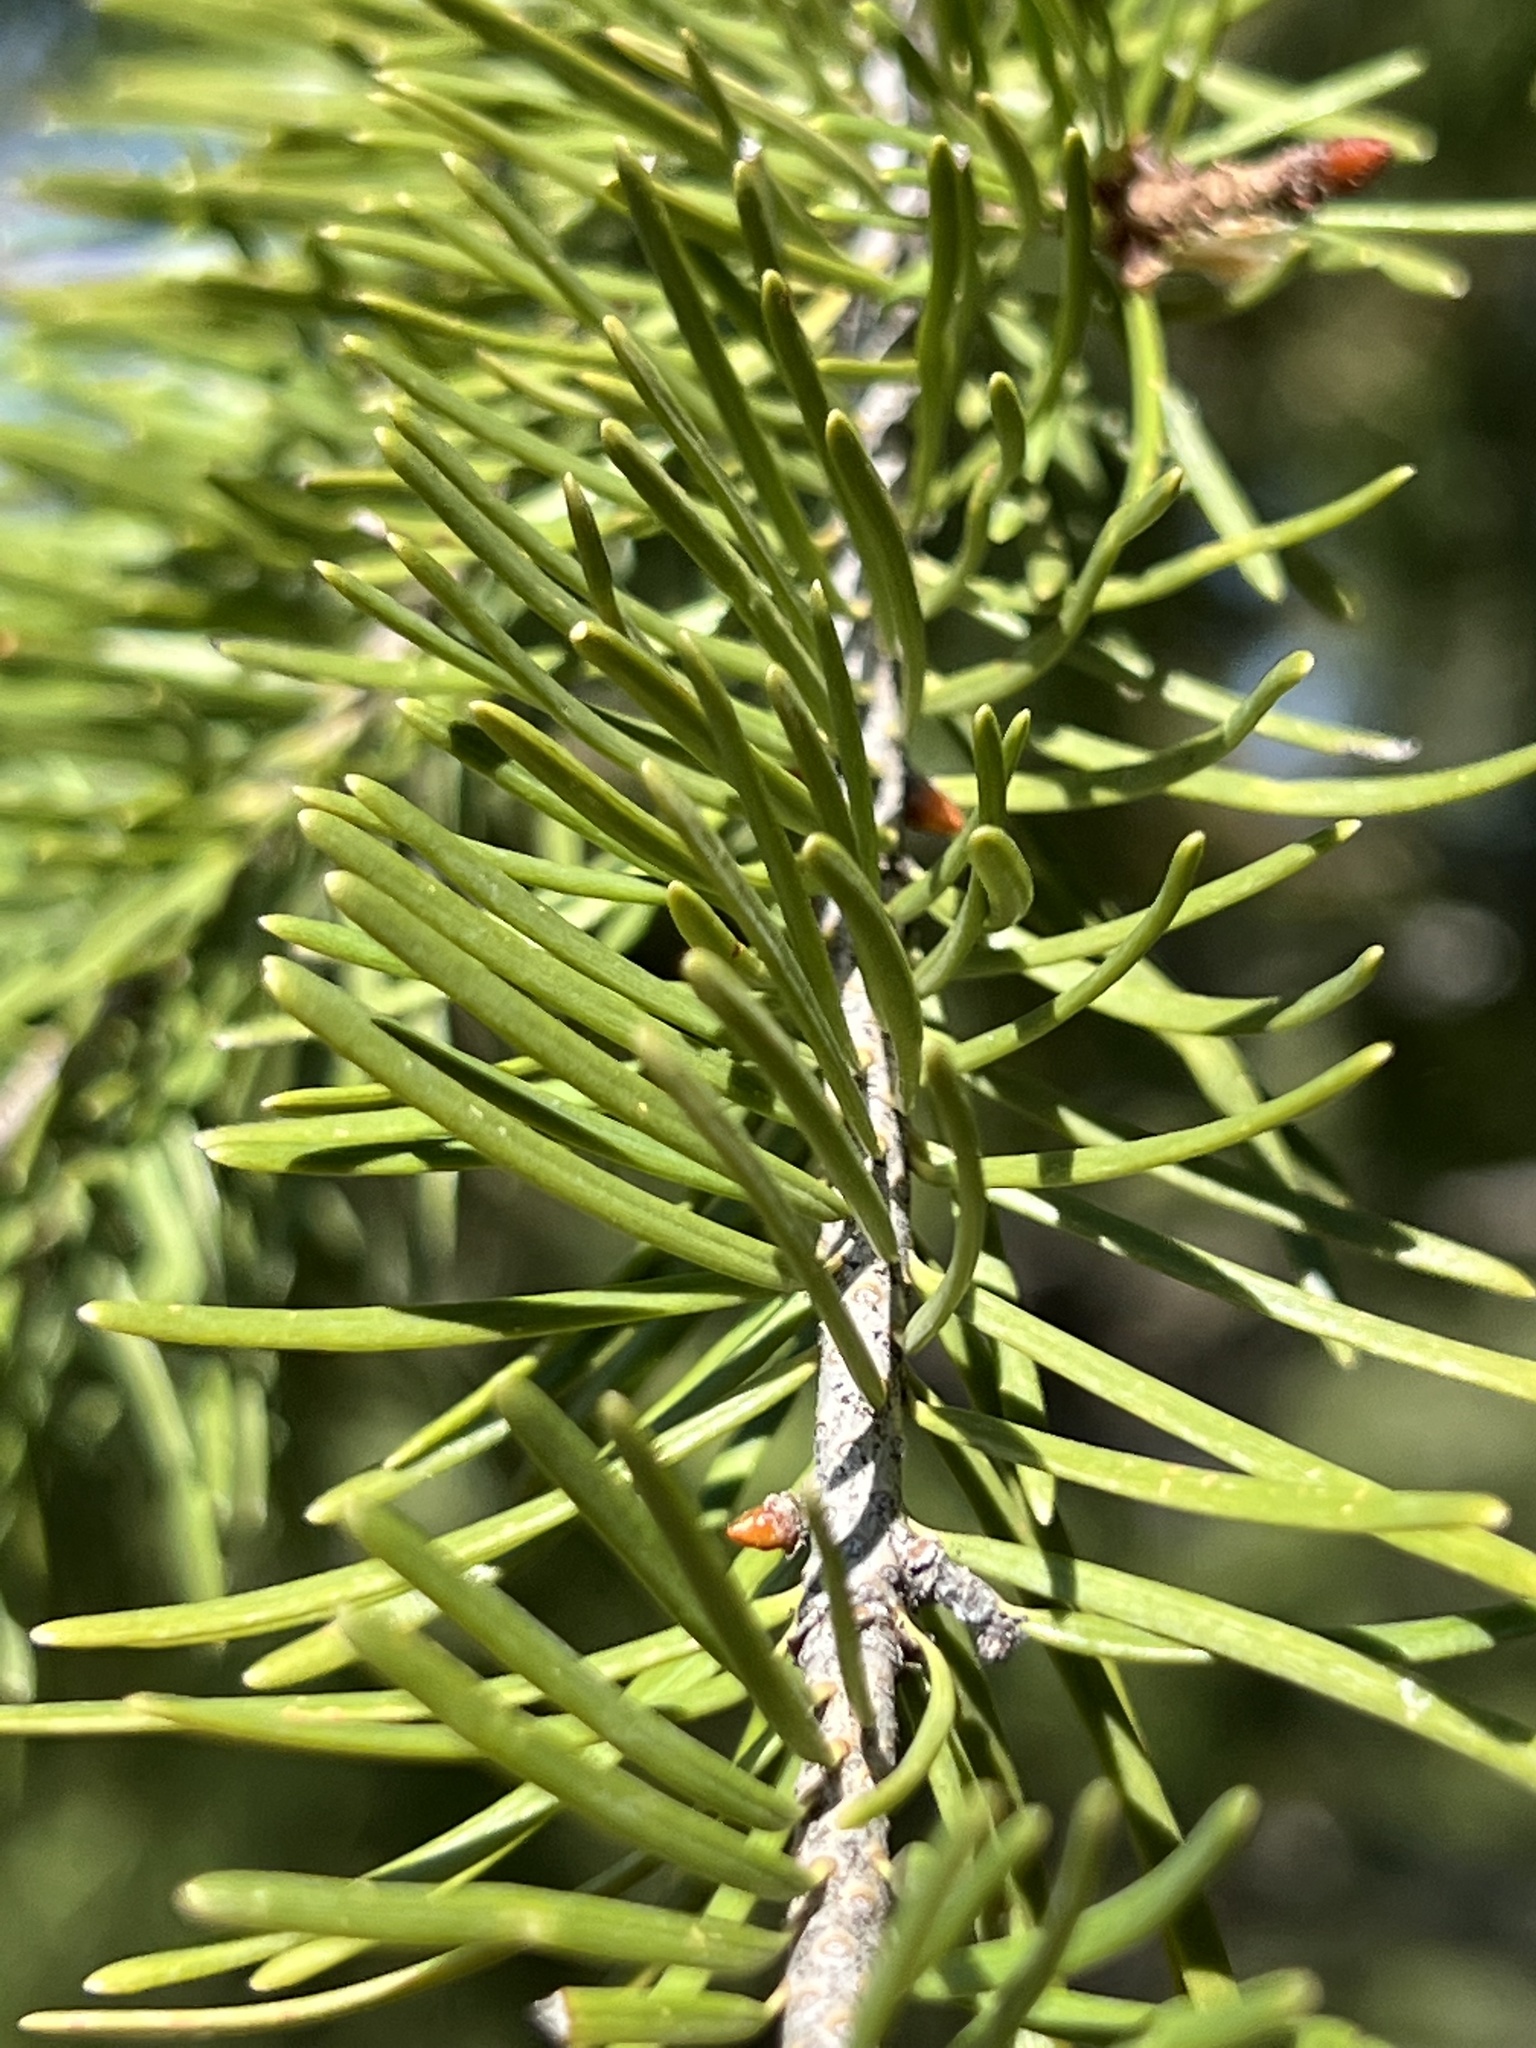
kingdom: Plantae
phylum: Tracheophyta
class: Pinopsida
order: Pinales
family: Pinaceae
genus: Pseudotsuga
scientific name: Pseudotsuga menziesii
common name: Douglas fir
